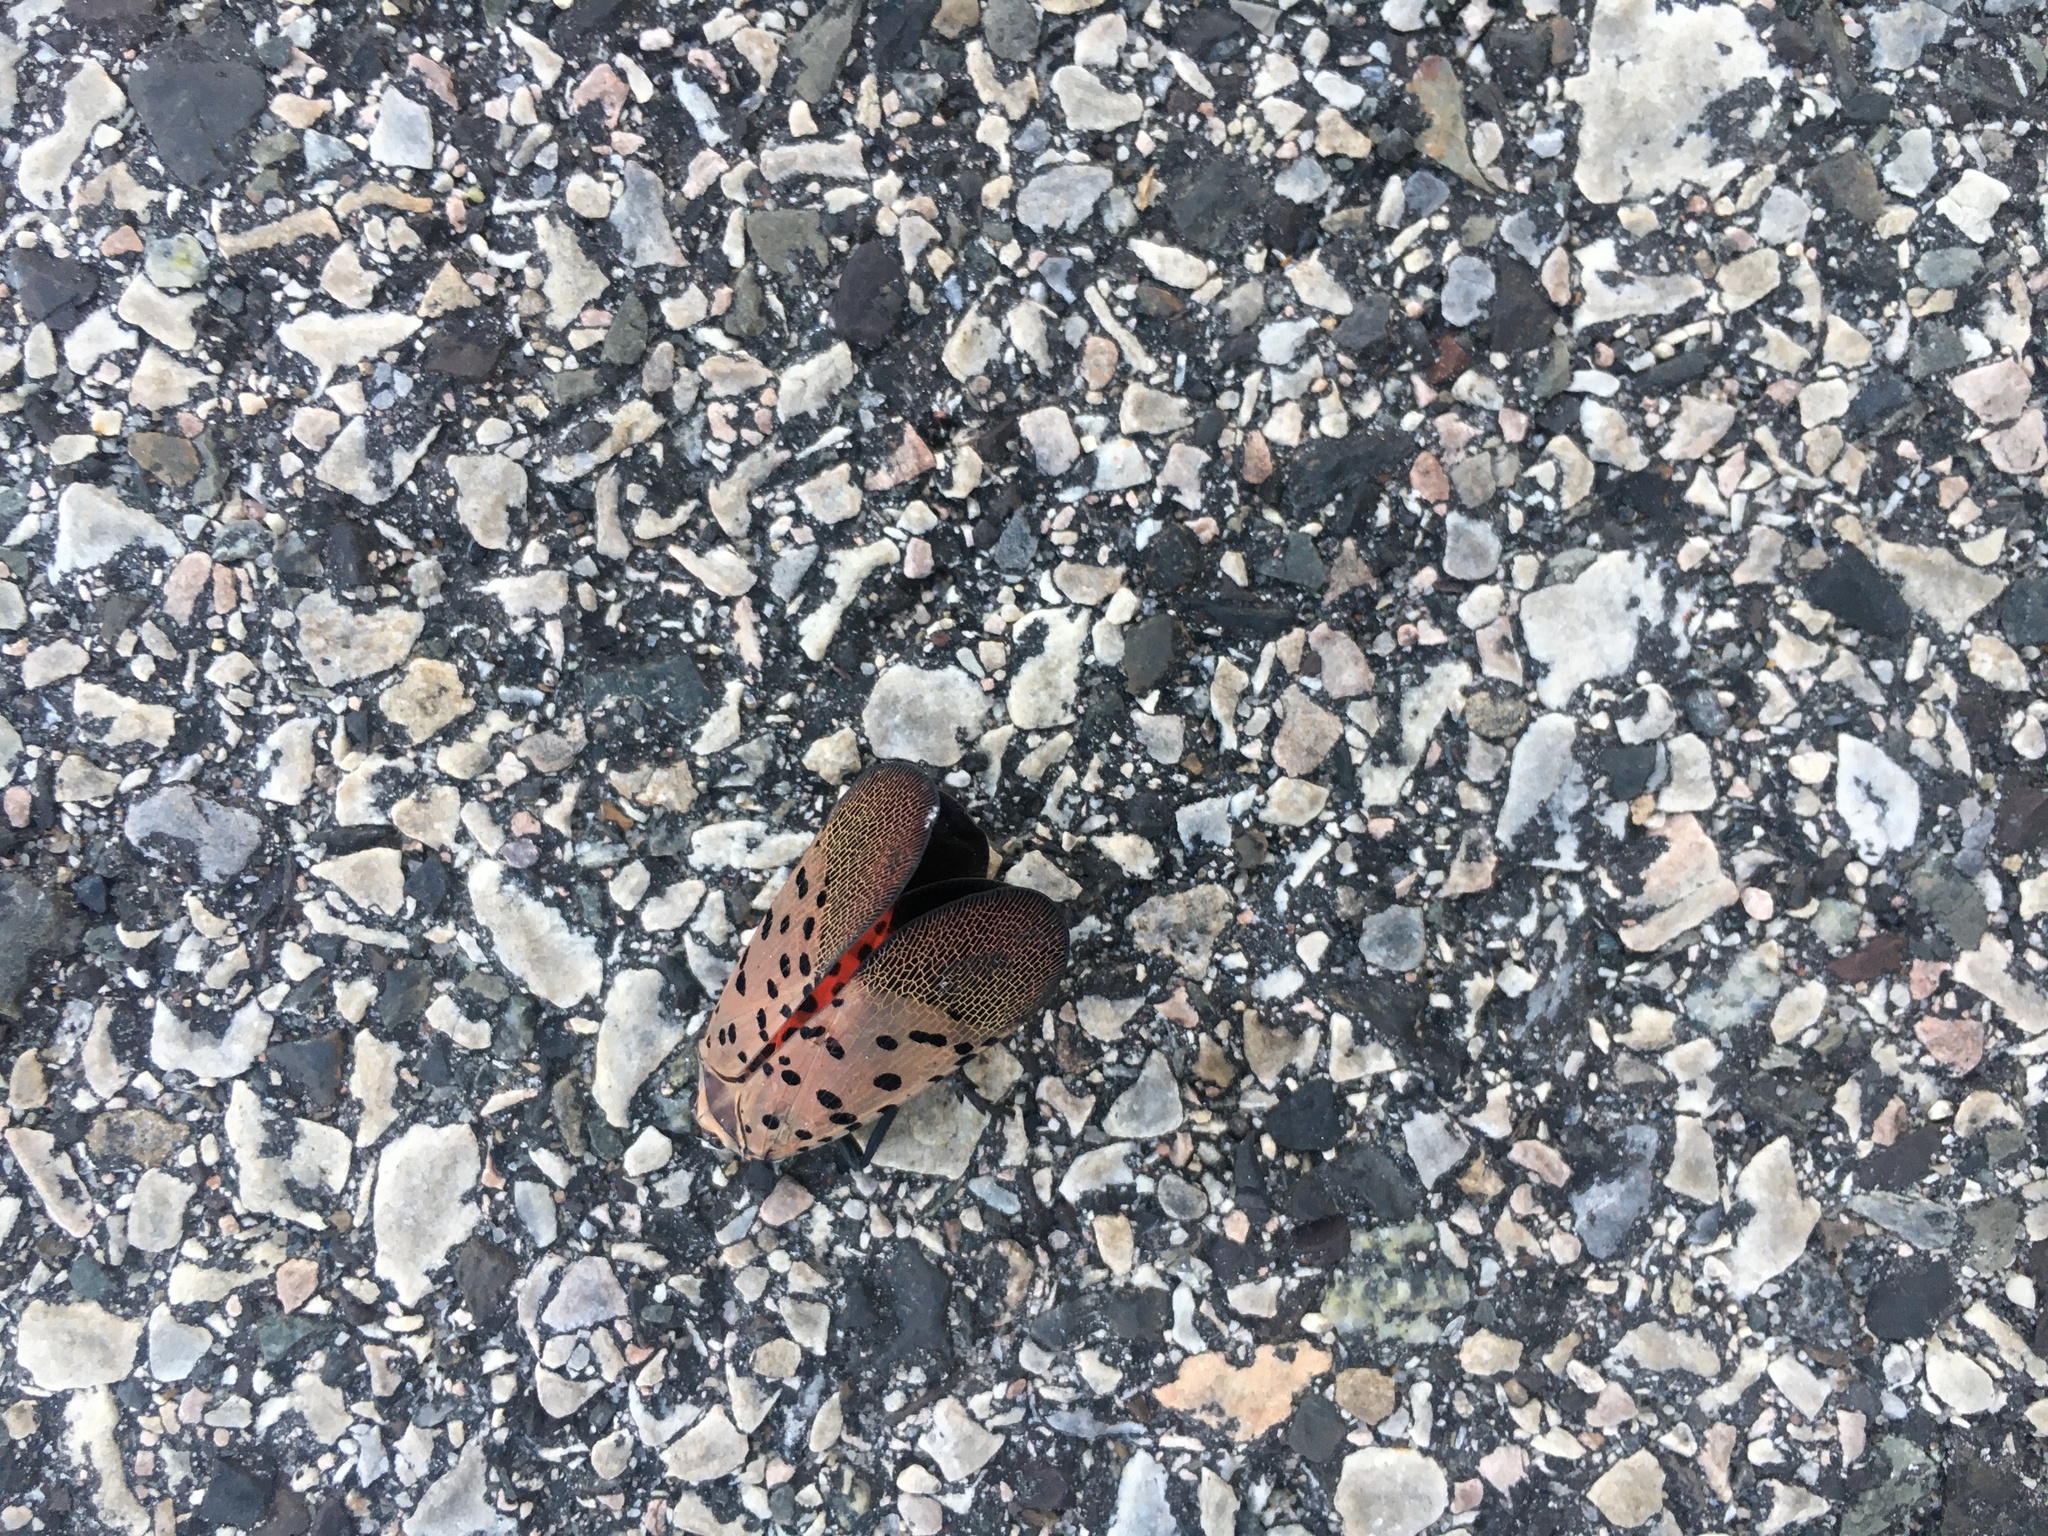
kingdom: Animalia
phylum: Arthropoda
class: Insecta
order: Hemiptera
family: Fulgoridae
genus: Lycorma
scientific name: Lycorma delicatula
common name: Spotted lanternfly
